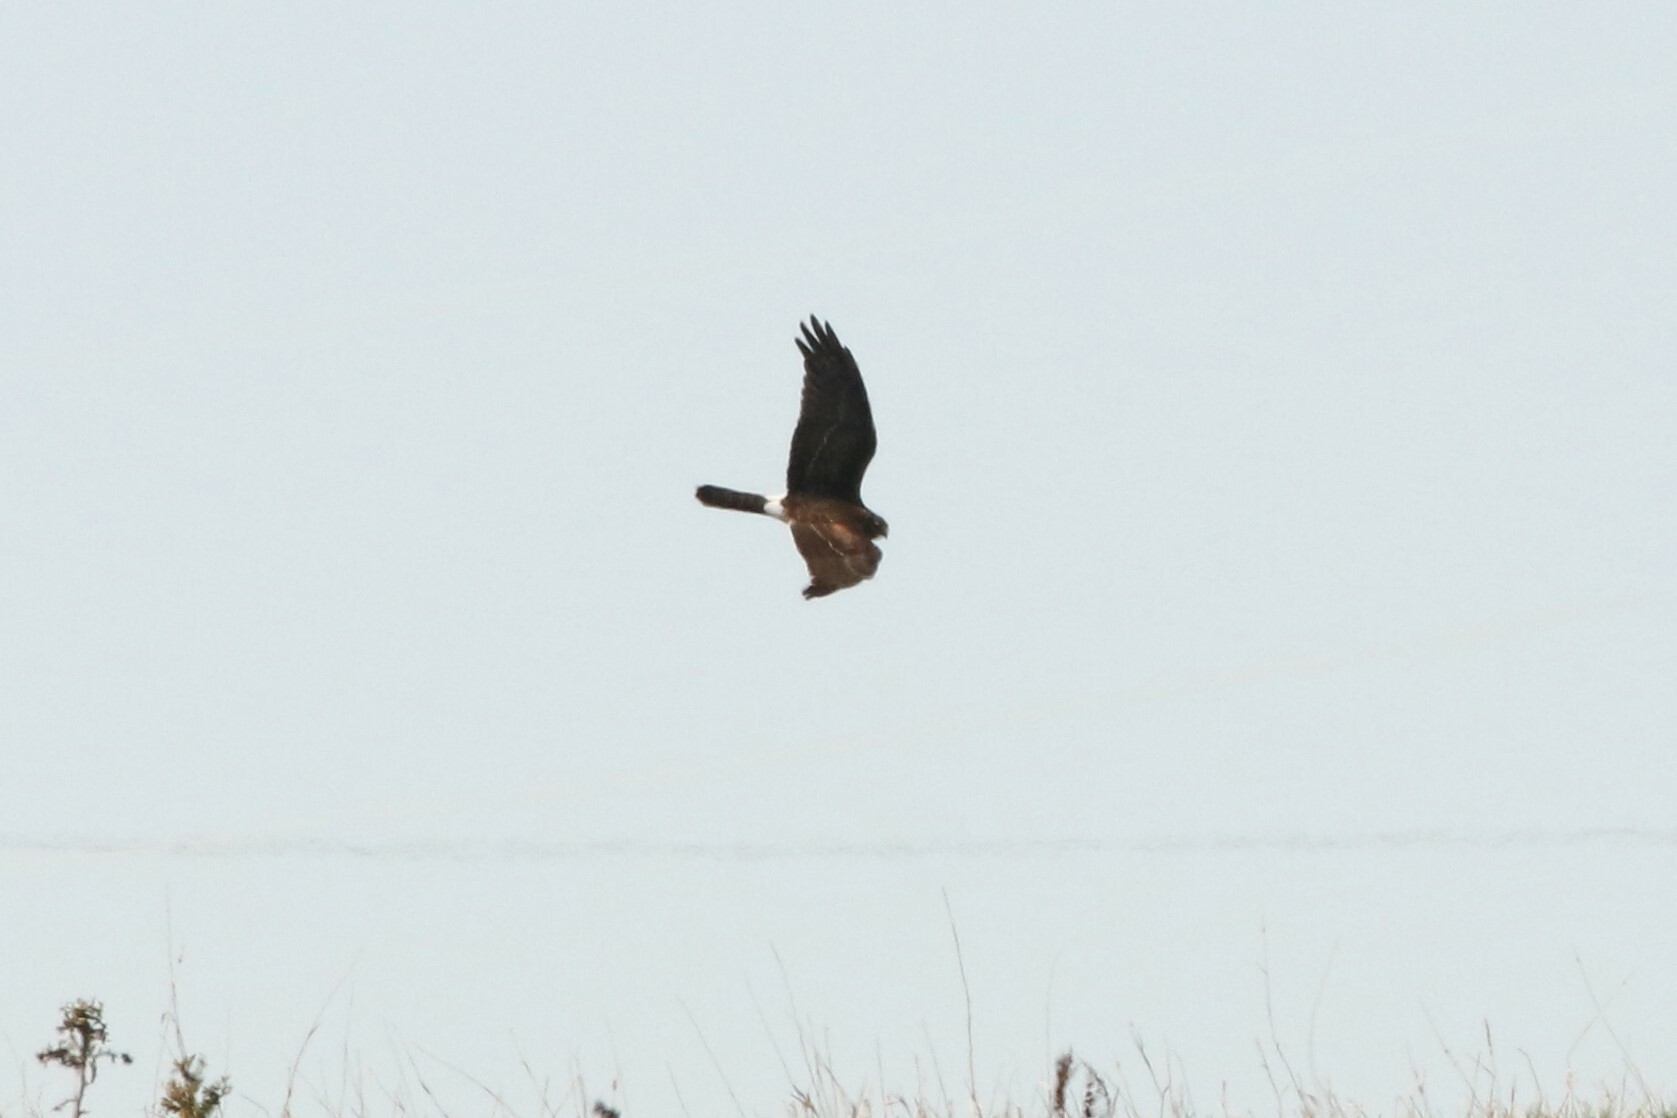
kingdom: Animalia
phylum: Chordata
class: Aves
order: Accipitriformes
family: Accipitridae
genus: Circus
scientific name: Circus cyaneus
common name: Hen harrier
